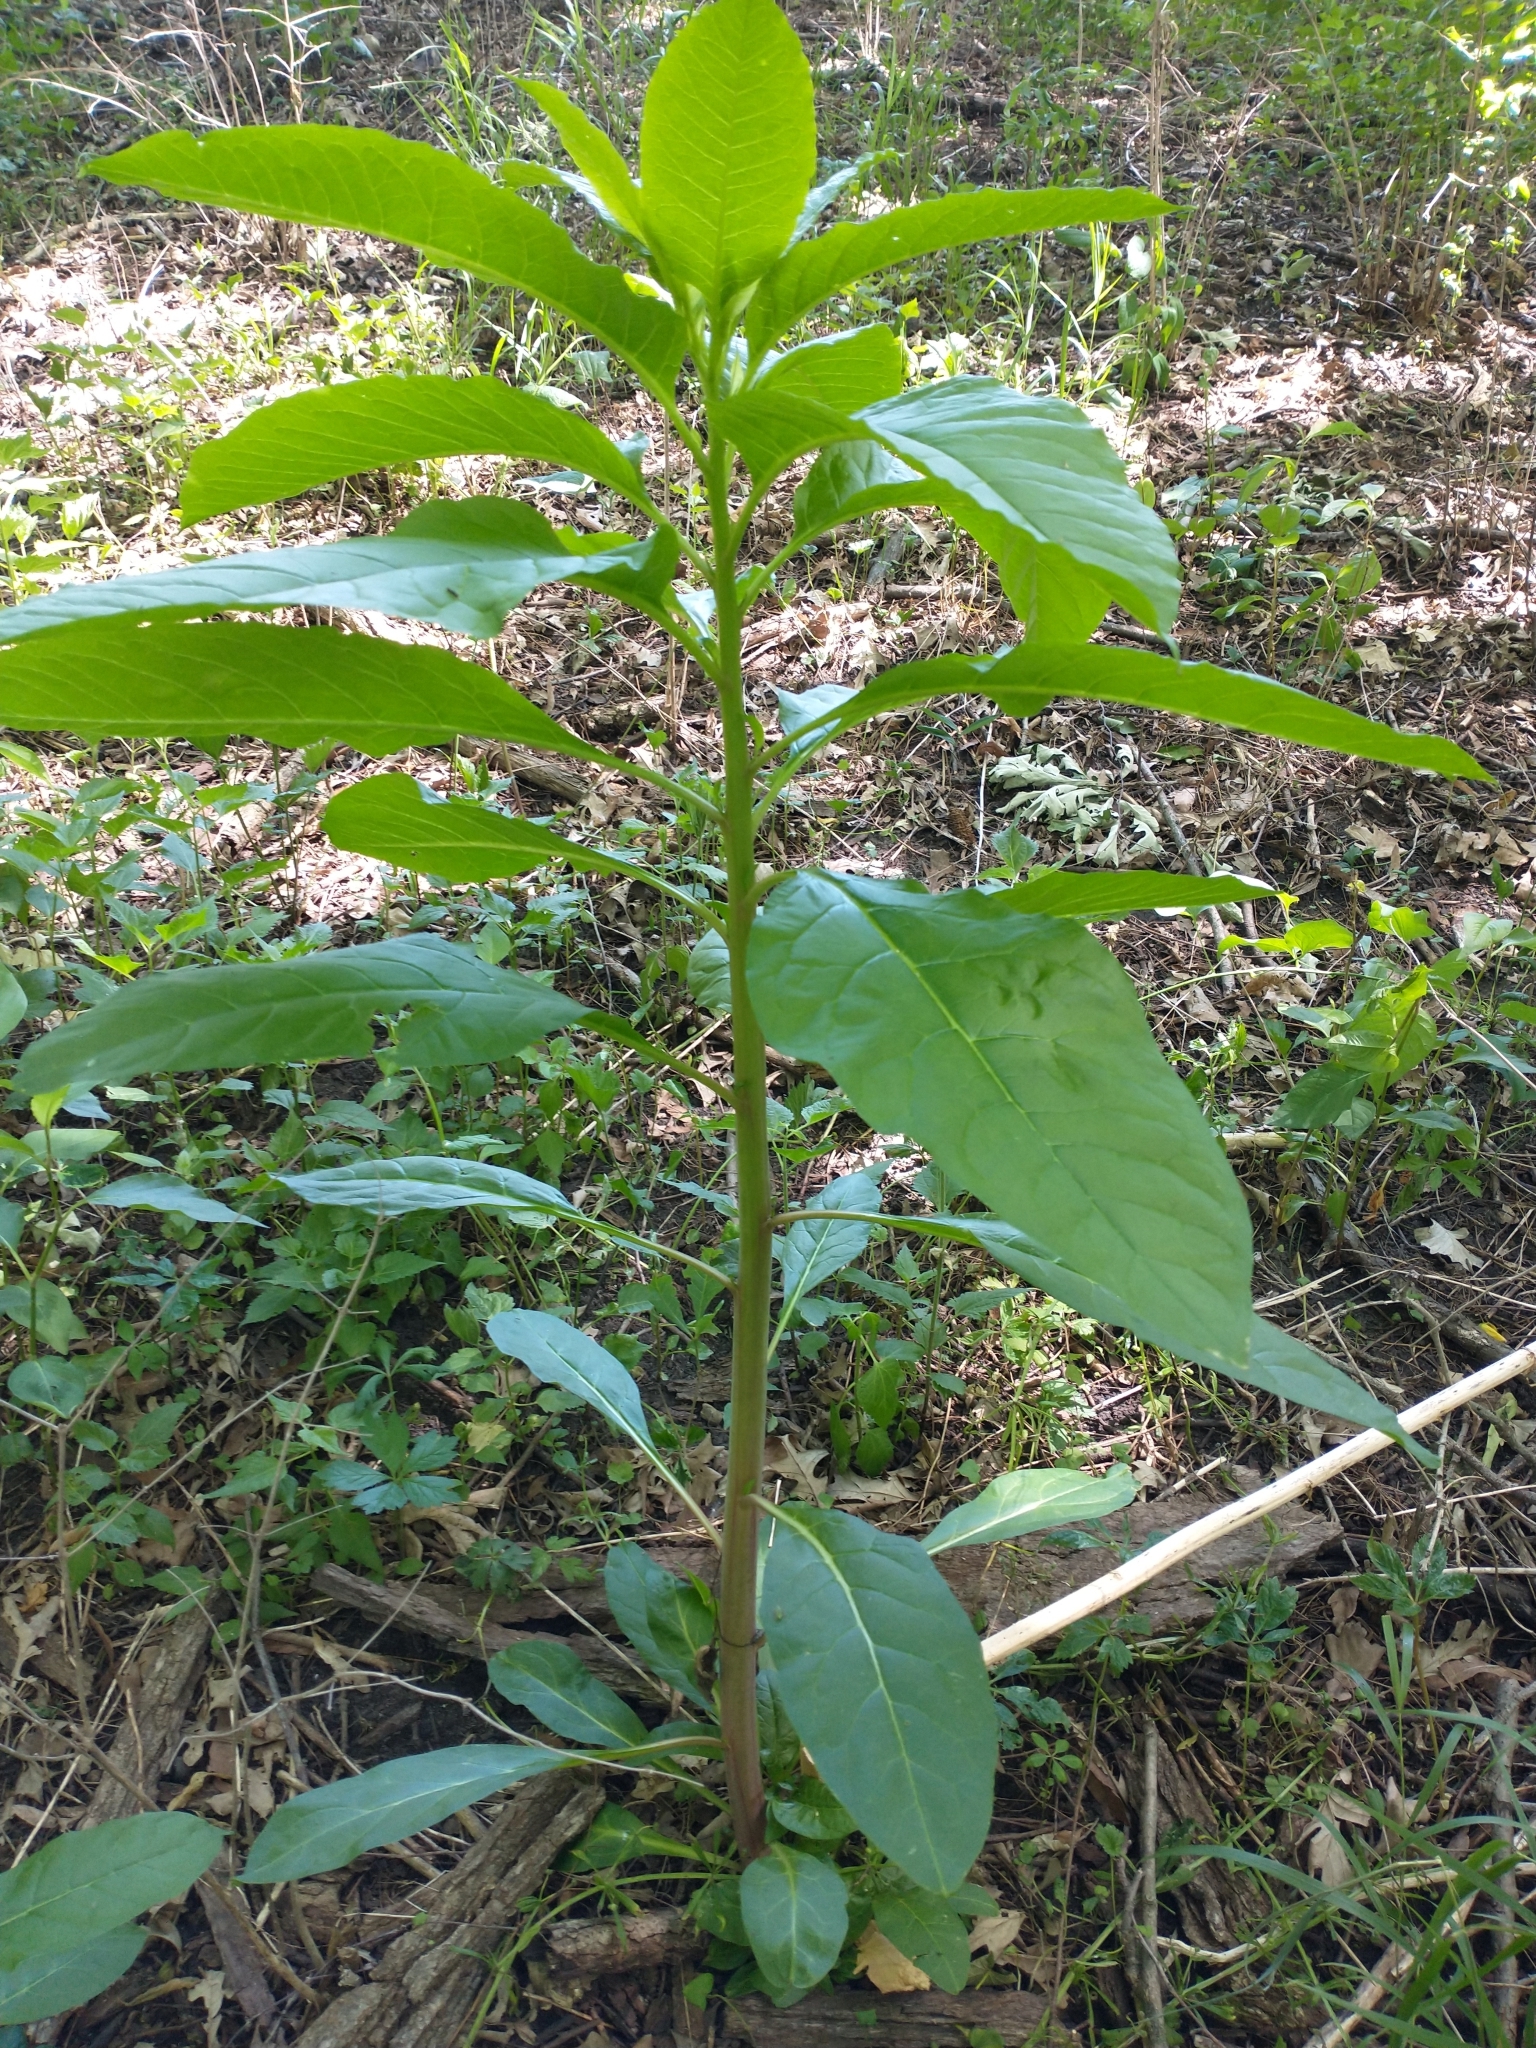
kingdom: Plantae
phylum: Tracheophyta
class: Magnoliopsida
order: Caryophyllales
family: Phytolaccaceae
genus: Phytolacca
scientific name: Phytolacca americana
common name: American pokeweed
